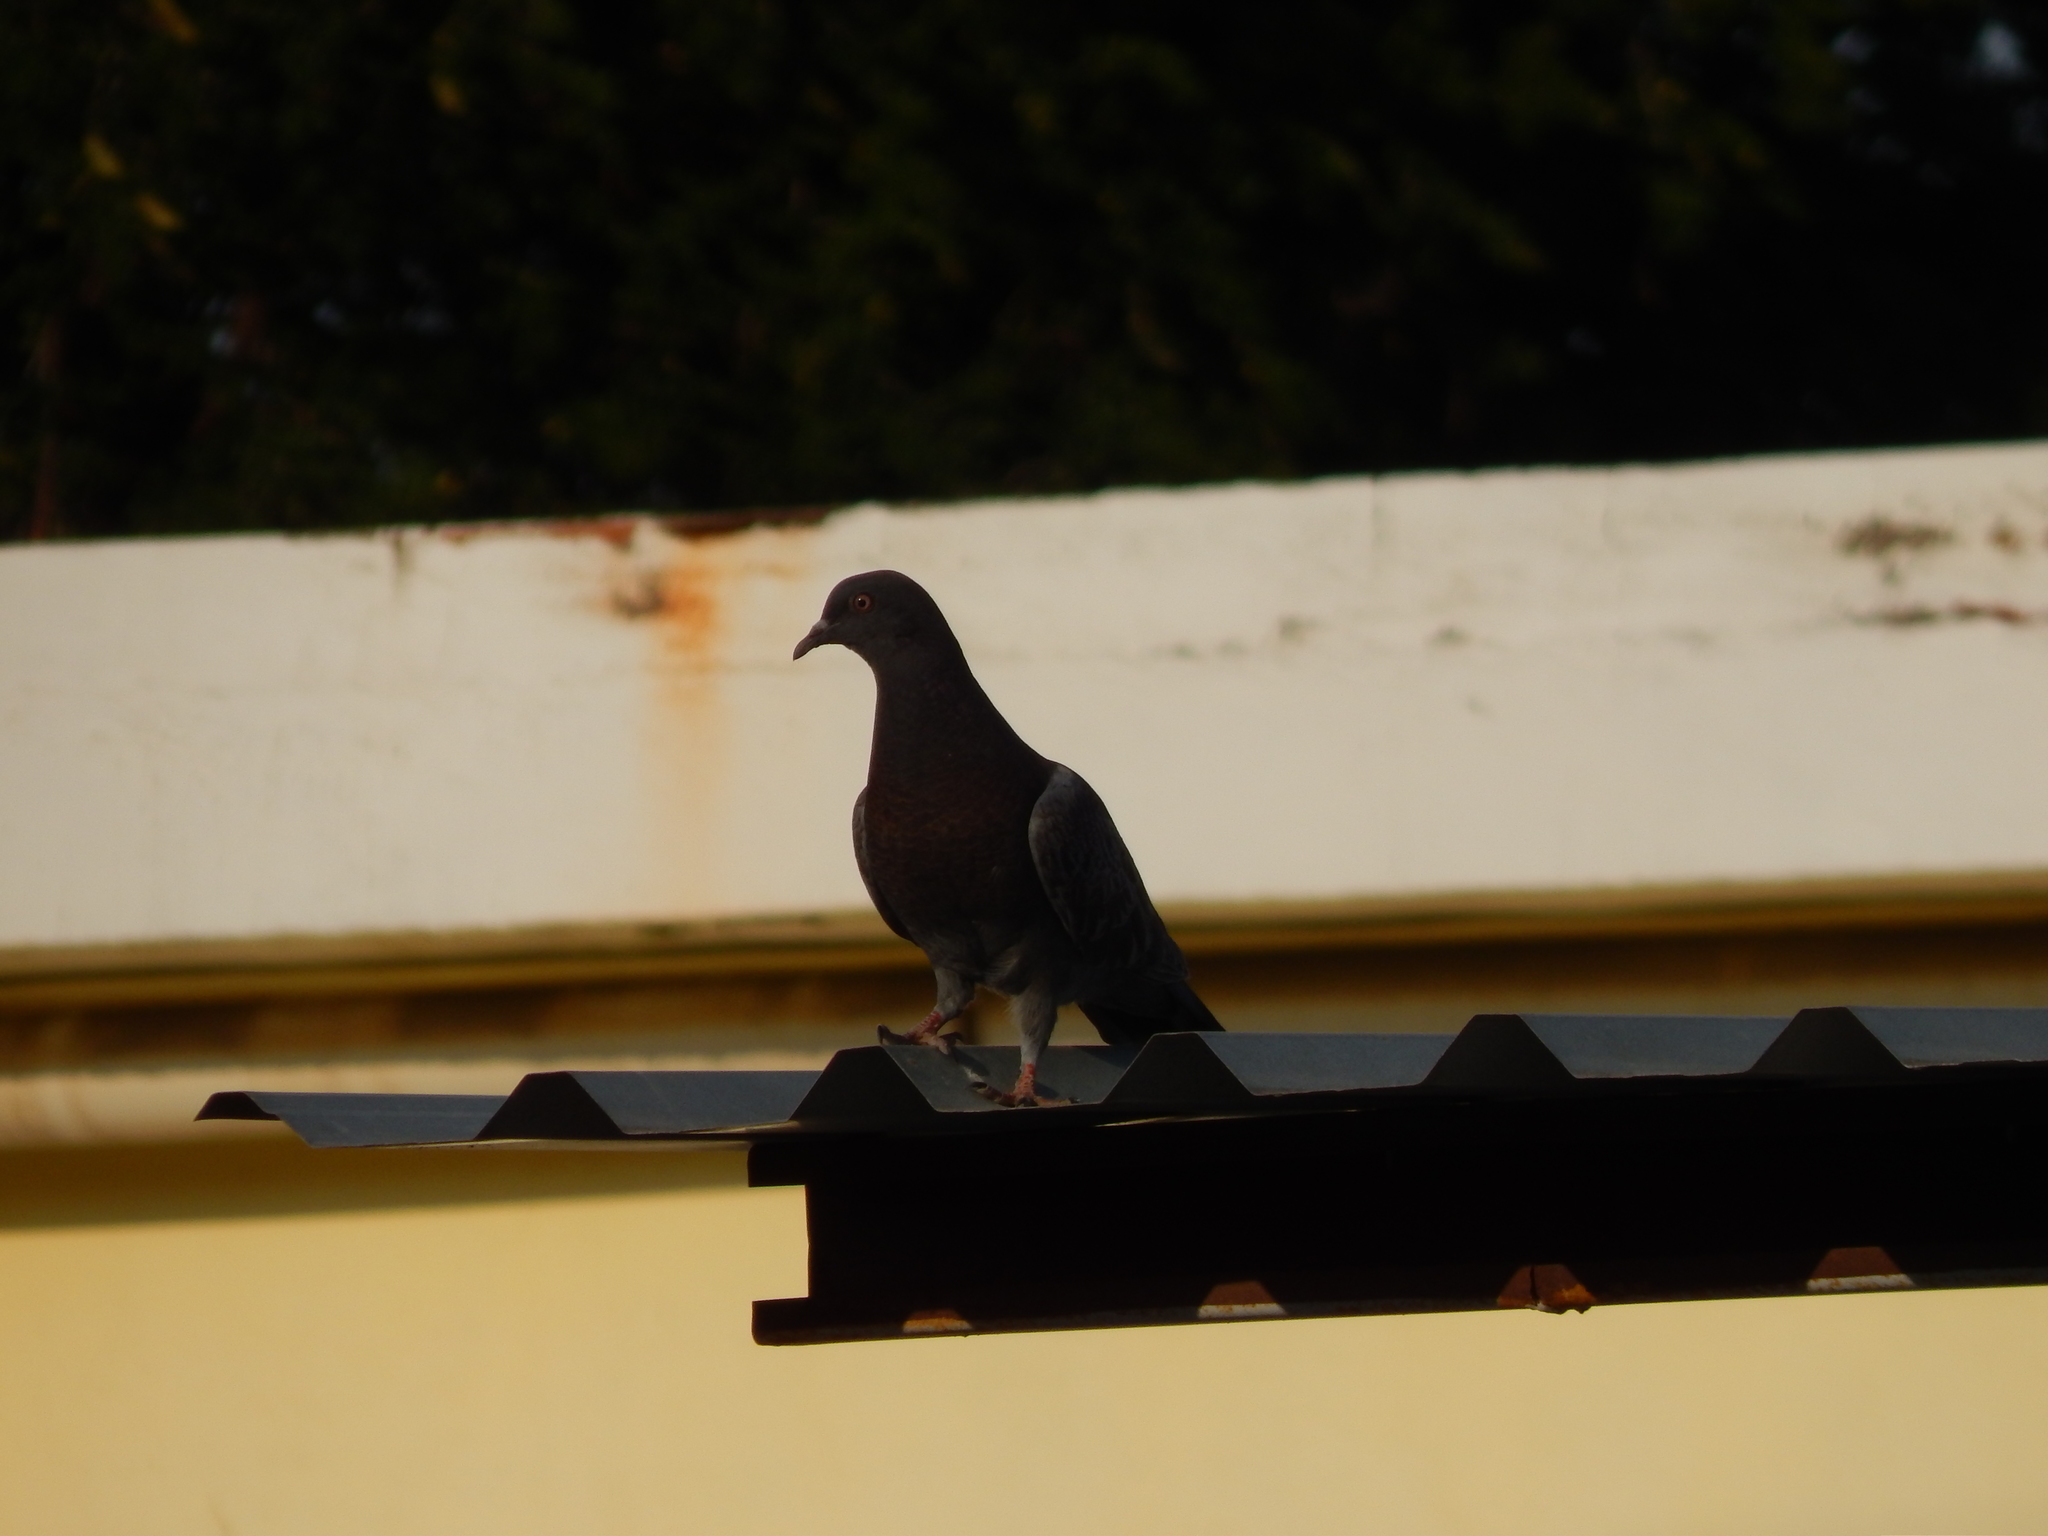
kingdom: Animalia
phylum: Chordata
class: Aves
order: Columbiformes
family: Columbidae
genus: Columba
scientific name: Columba livia
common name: Rock pigeon
